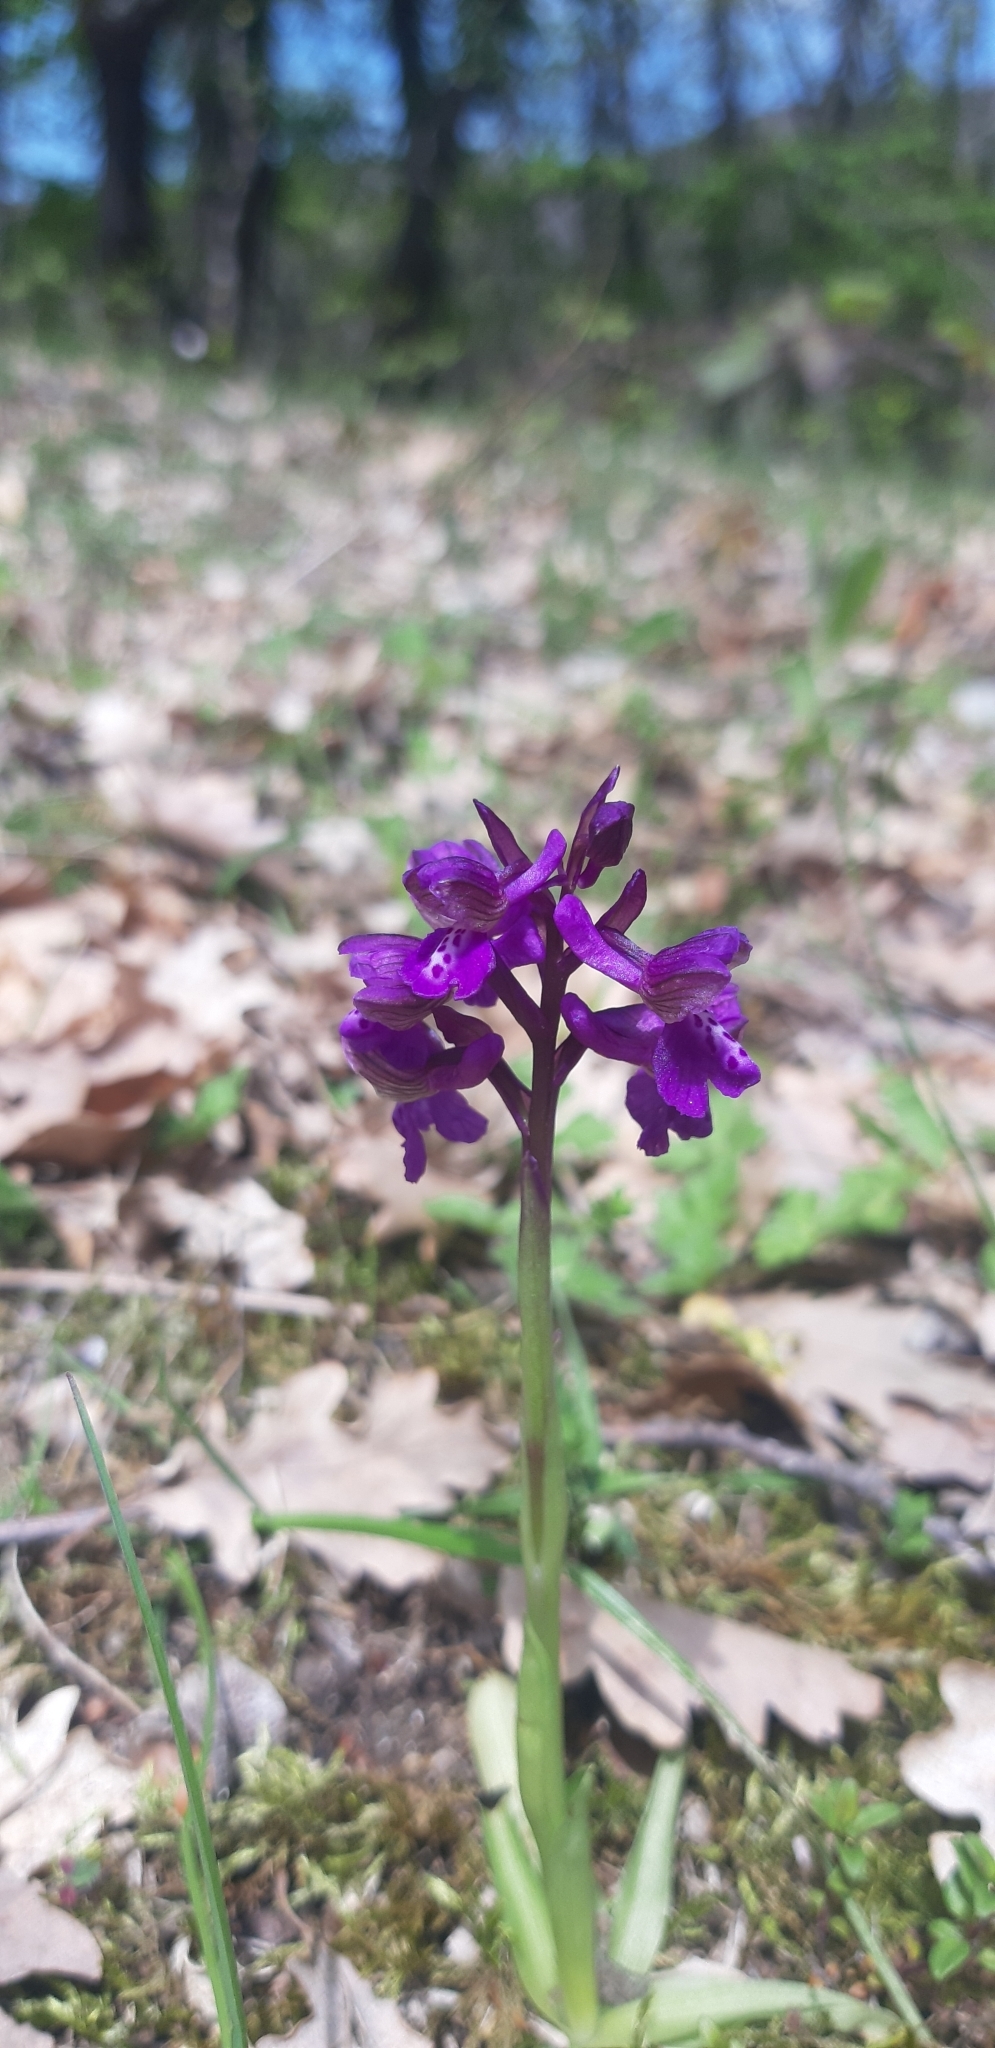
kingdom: Plantae
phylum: Tracheophyta
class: Liliopsida
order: Asparagales
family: Orchidaceae
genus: Anacamptis
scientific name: Anacamptis morio
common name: Green-winged orchid
